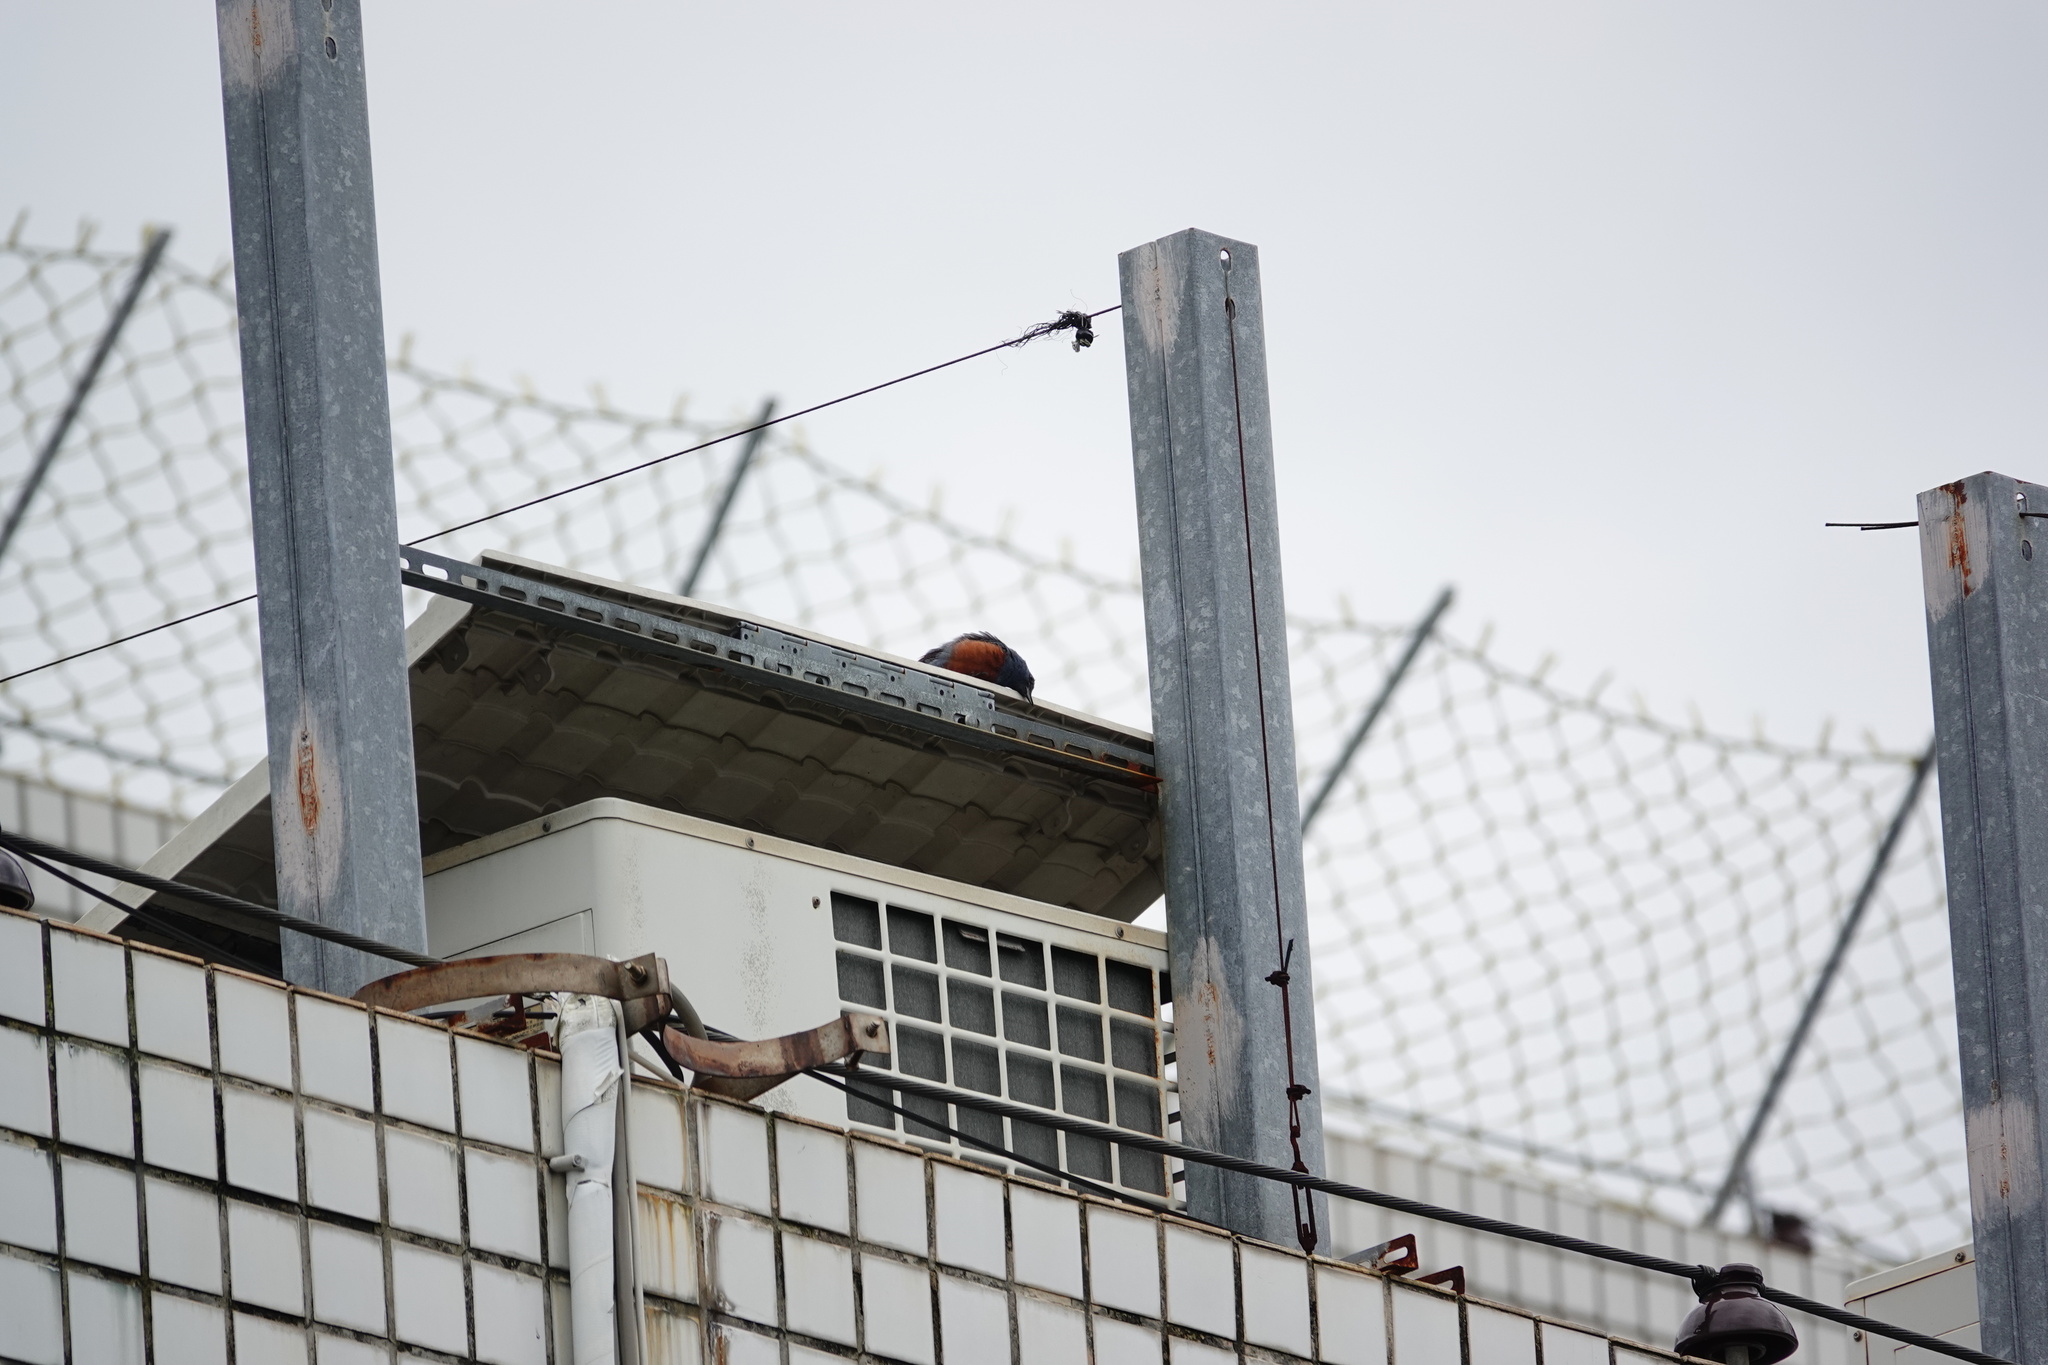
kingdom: Animalia
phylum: Chordata
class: Aves
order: Passeriformes
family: Muscicapidae
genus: Monticola
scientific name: Monticola solitarius
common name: Blue rock thrush
